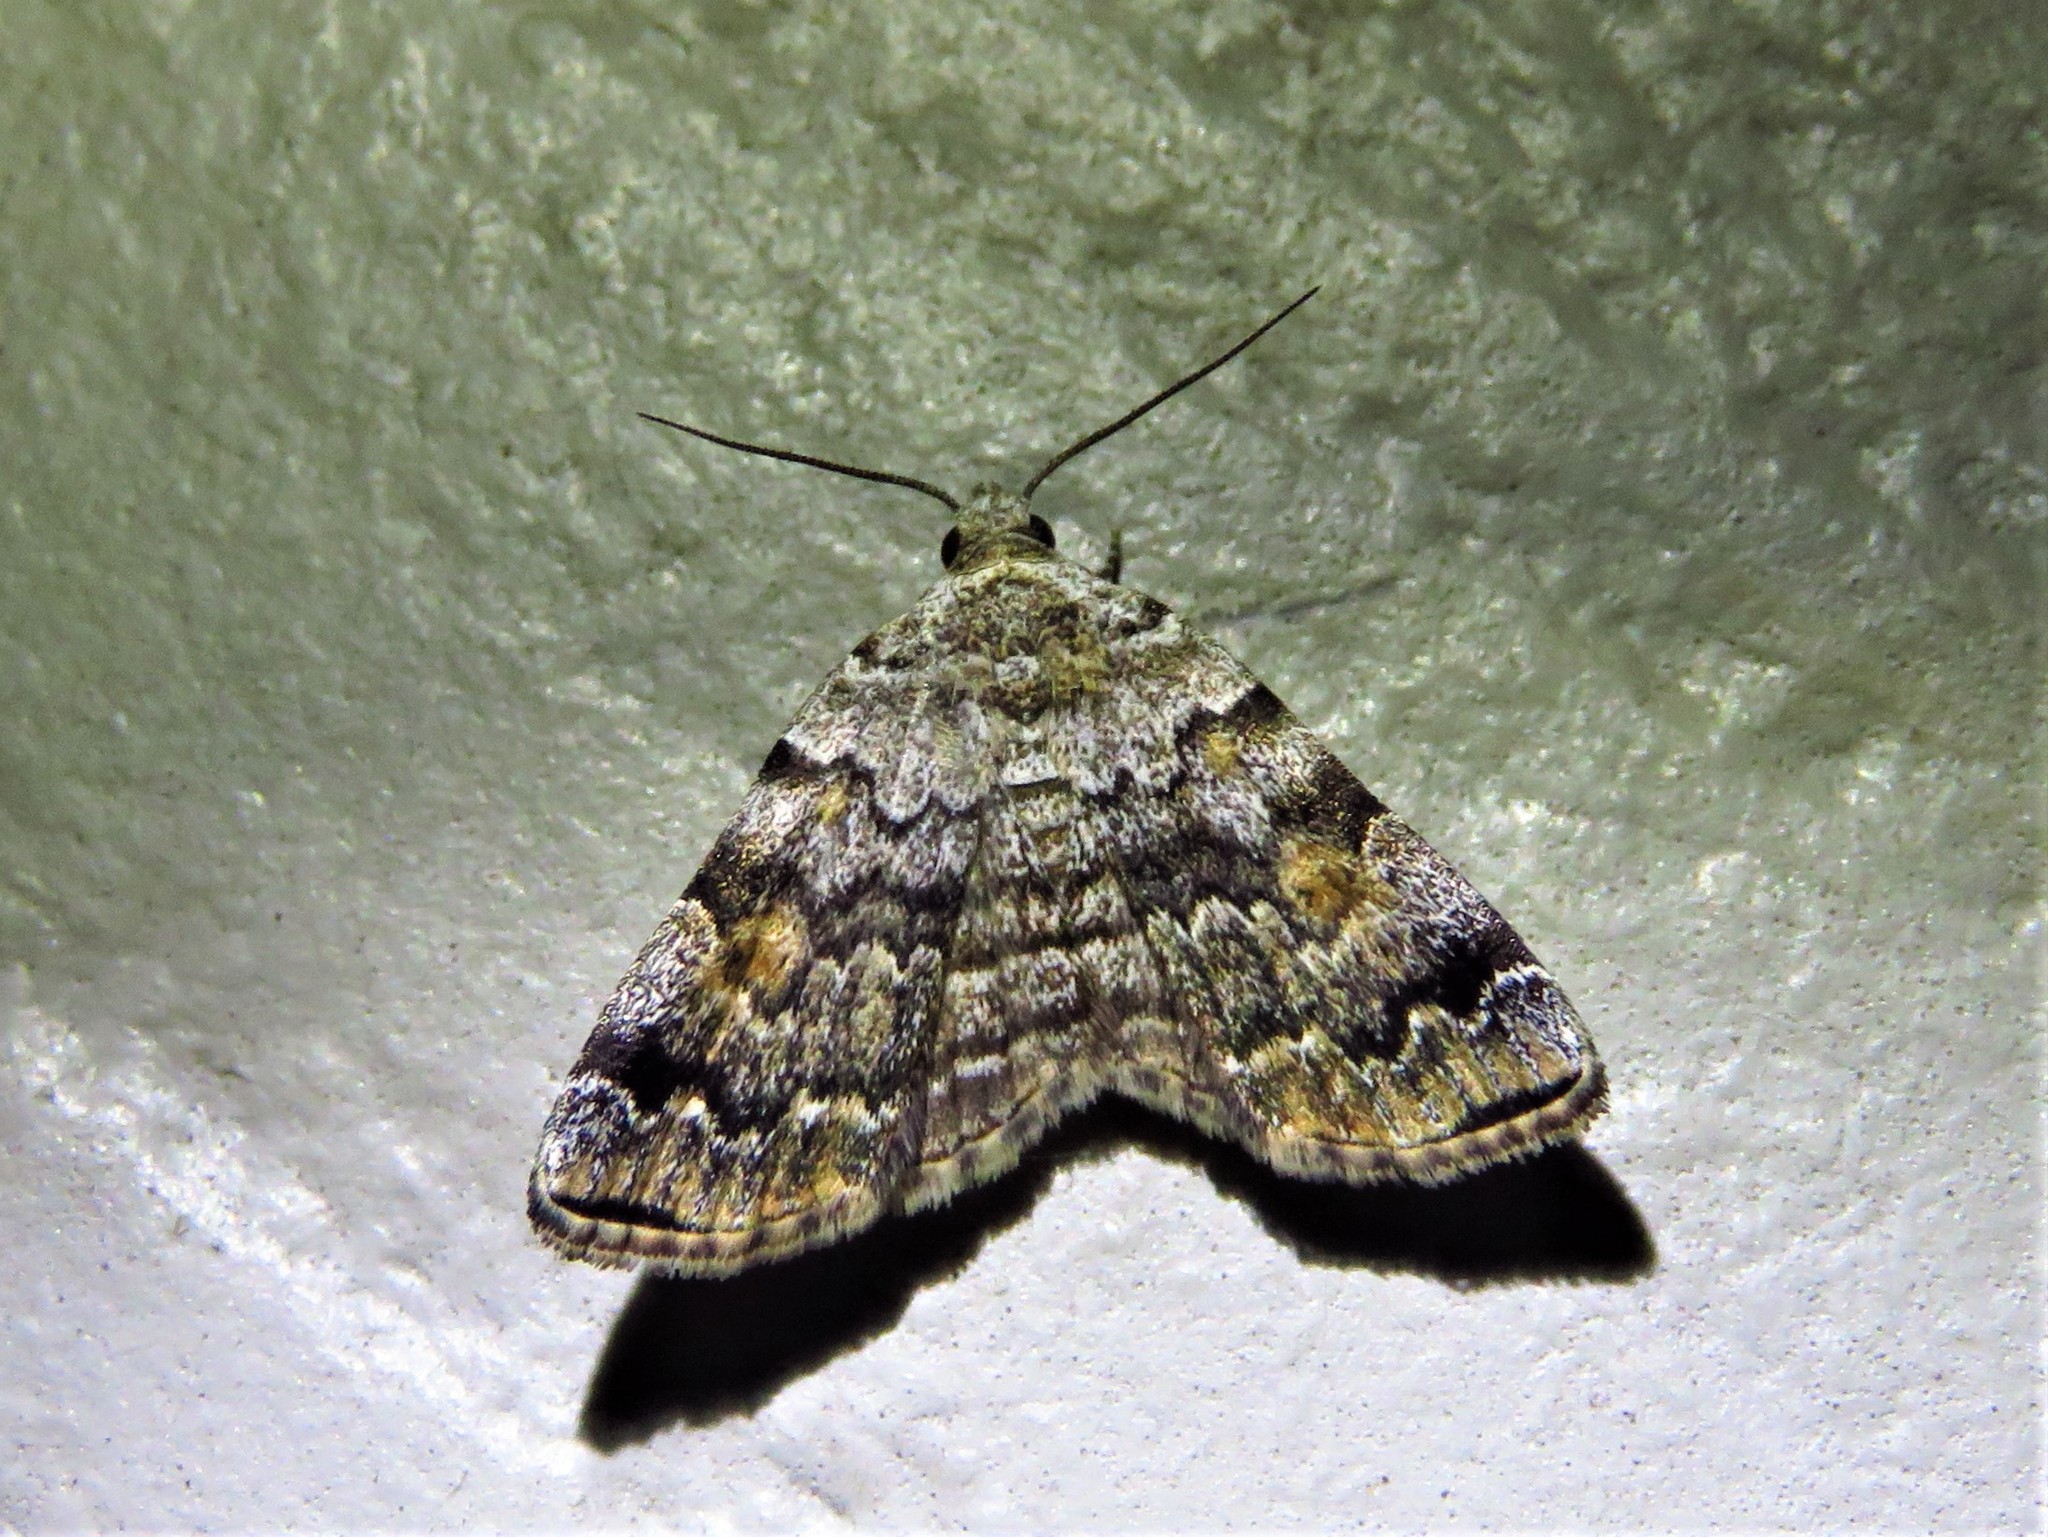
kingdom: Animalia
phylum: Arthropoda
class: Insecta
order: Lepidoptera
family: Erebidae
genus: Idia
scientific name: Idia americalis
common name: American idia moth
